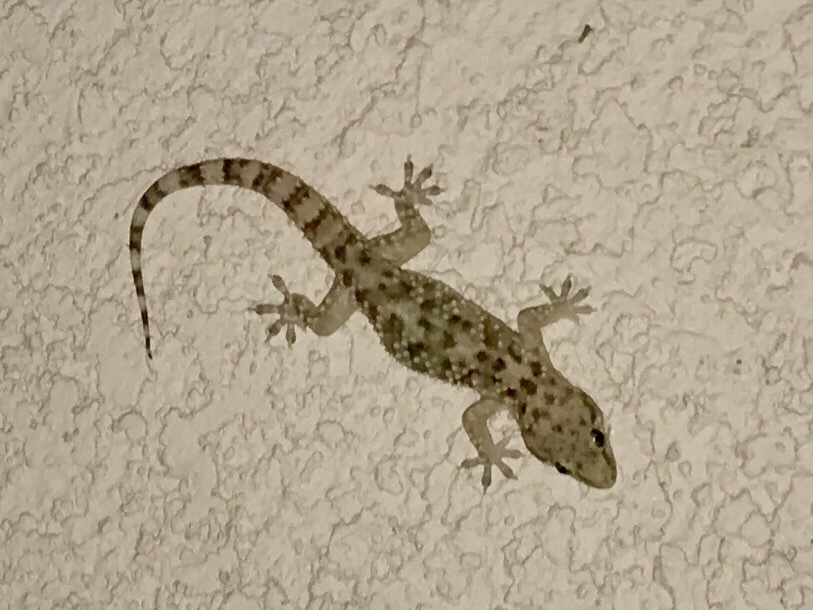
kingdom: Animalia
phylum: Chordata
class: Squamata
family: Gekkonidae
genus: Hemidactylus
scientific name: Hemidactylus turcicus
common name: Turkish gecko
